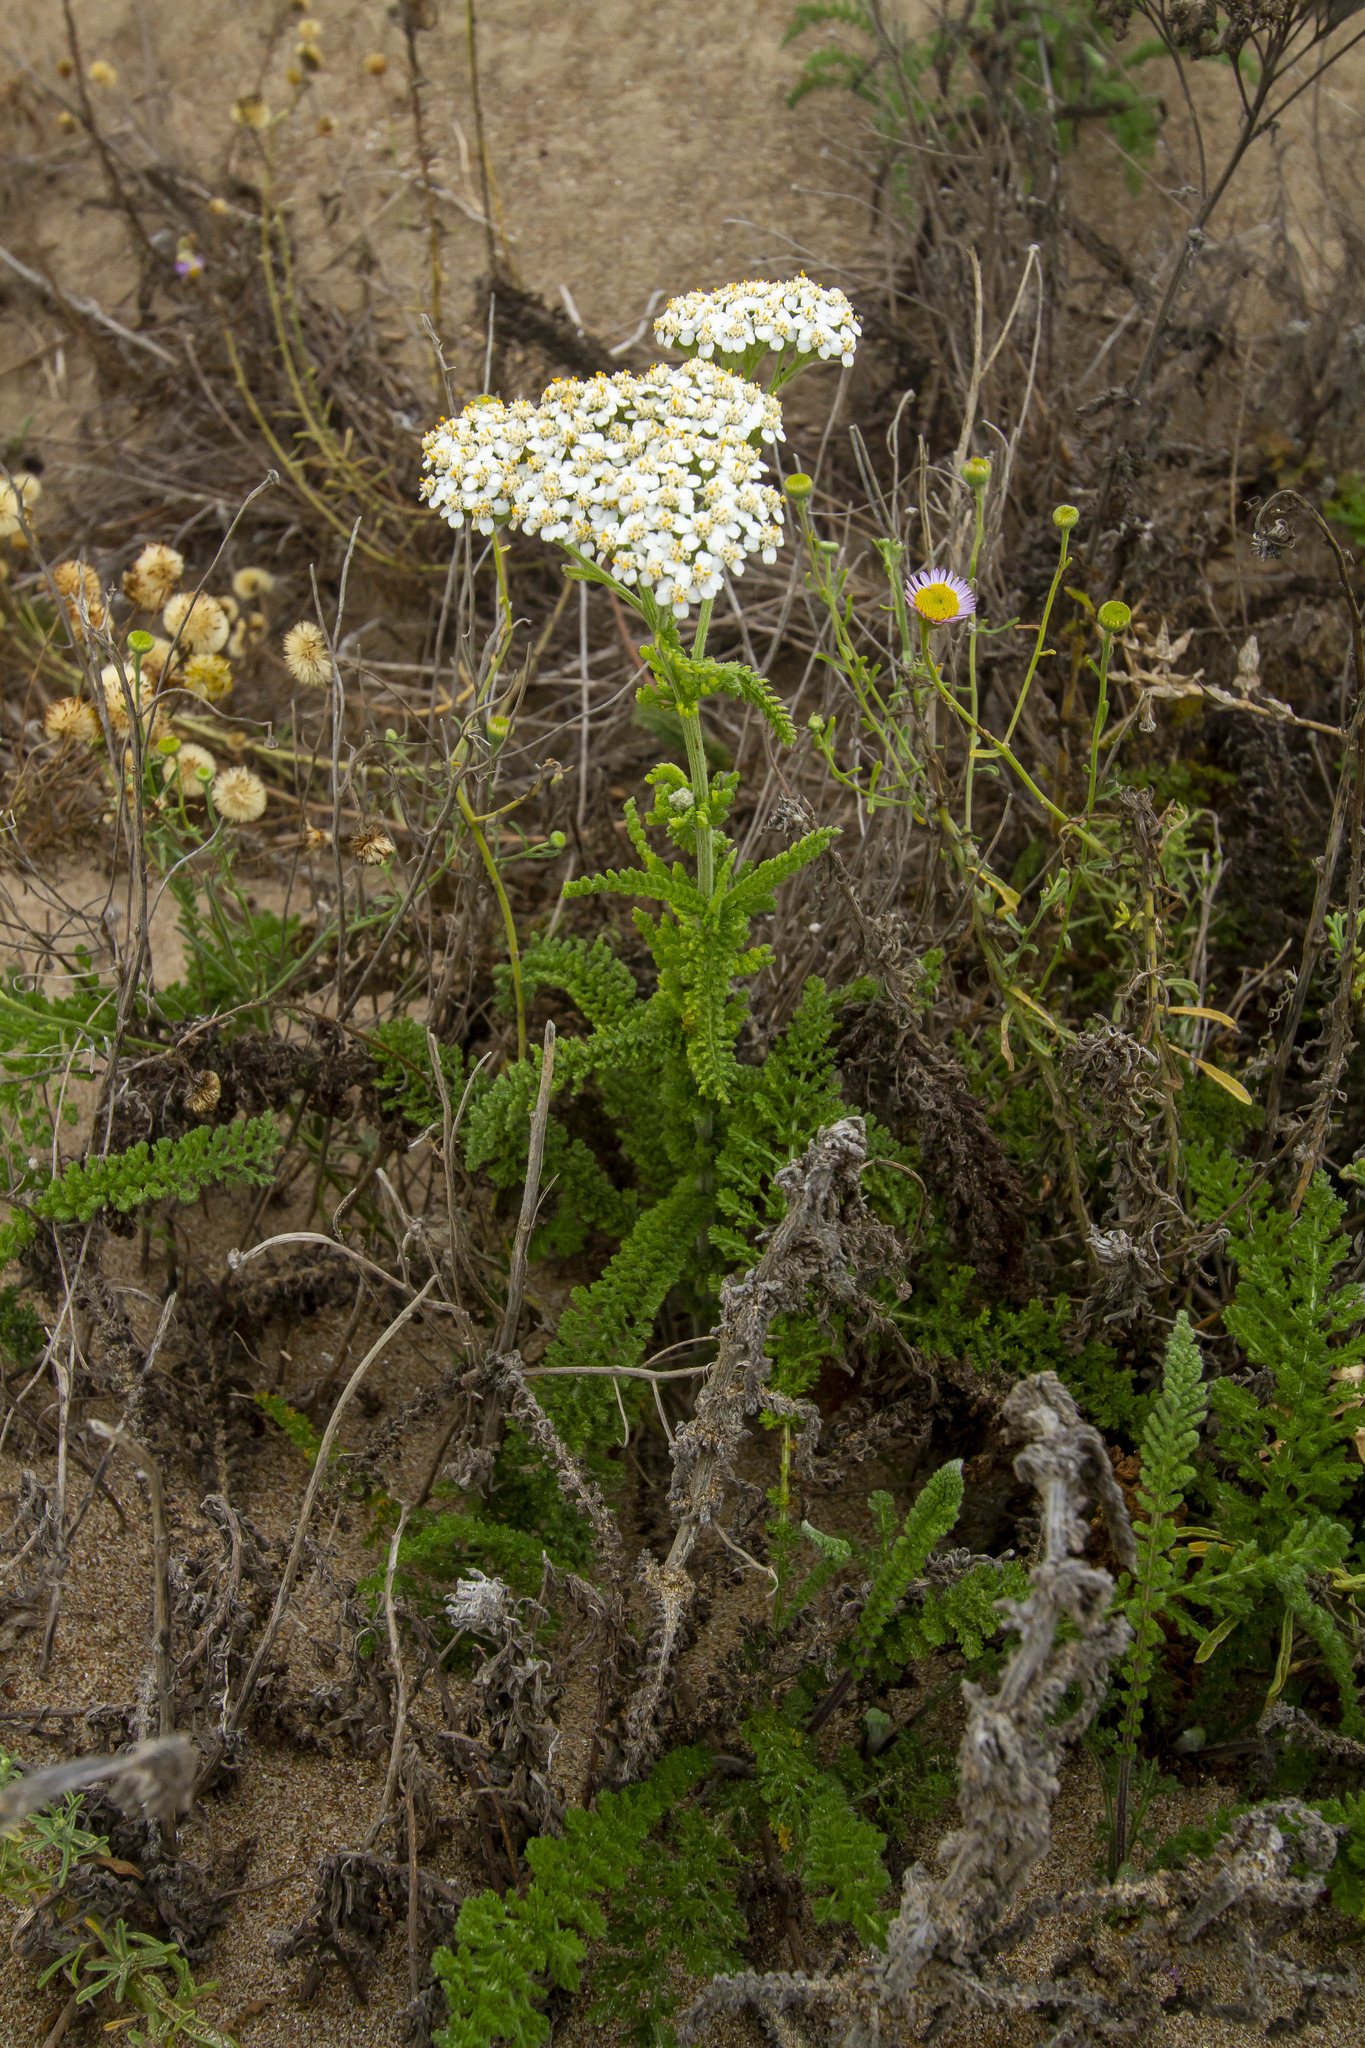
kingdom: Plantae
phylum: Tracheophyta
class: Magnoliopsida
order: Asterales
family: Asteraceae
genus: Achillea
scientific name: Achillea millefolium
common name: Yarrow
